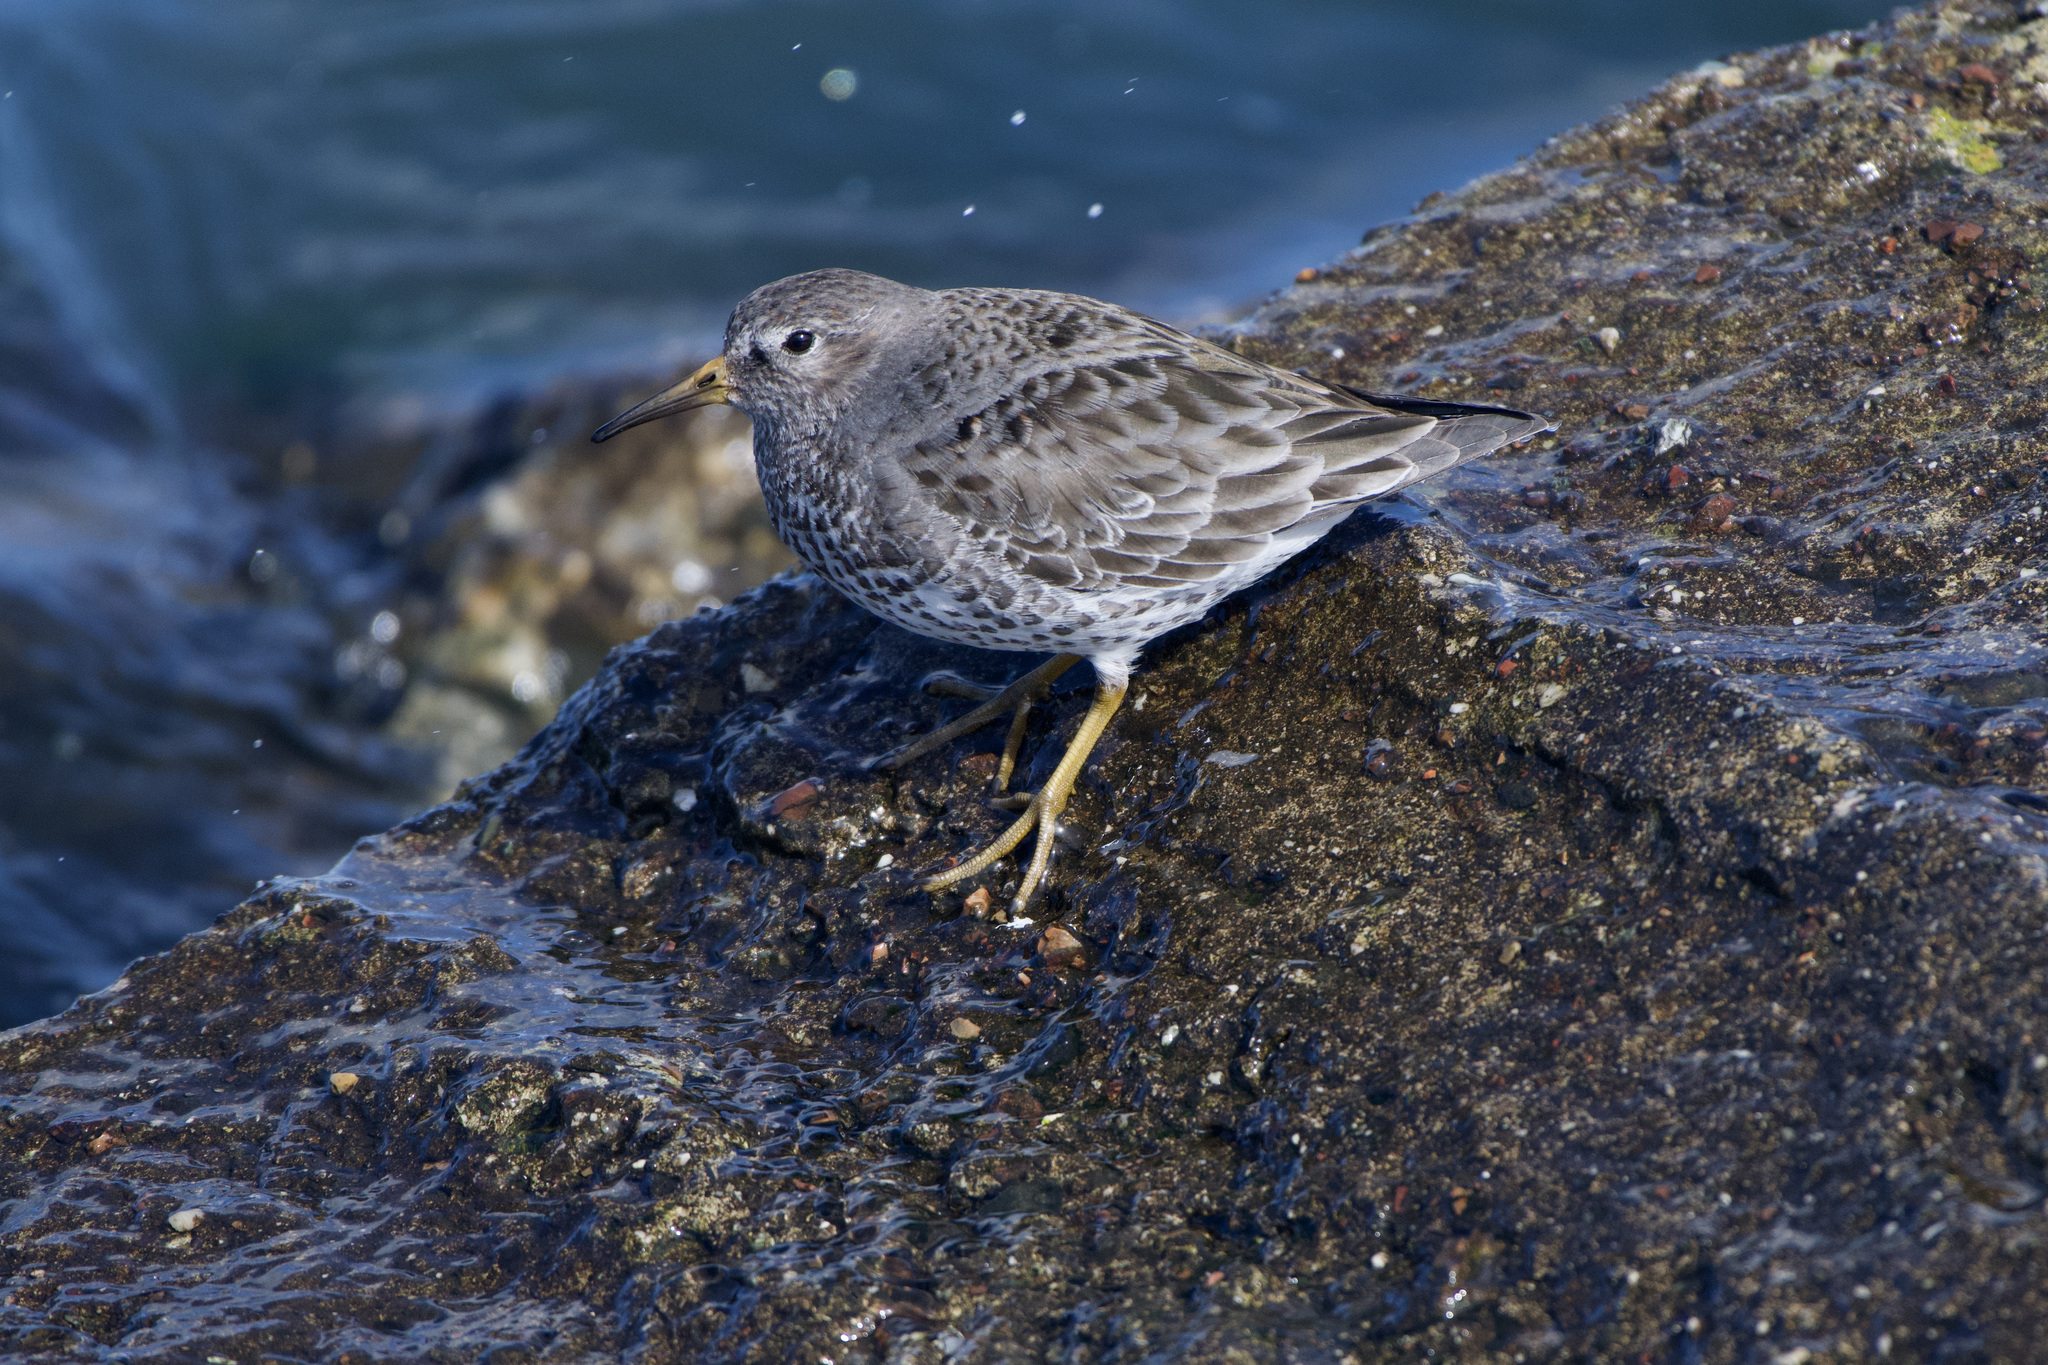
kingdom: Animalia
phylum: Chordata
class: Aves
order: Charadriiformes
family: Scolopacidae
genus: Calidris
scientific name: Calidris ptilocnemis
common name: Rock sandpiper
